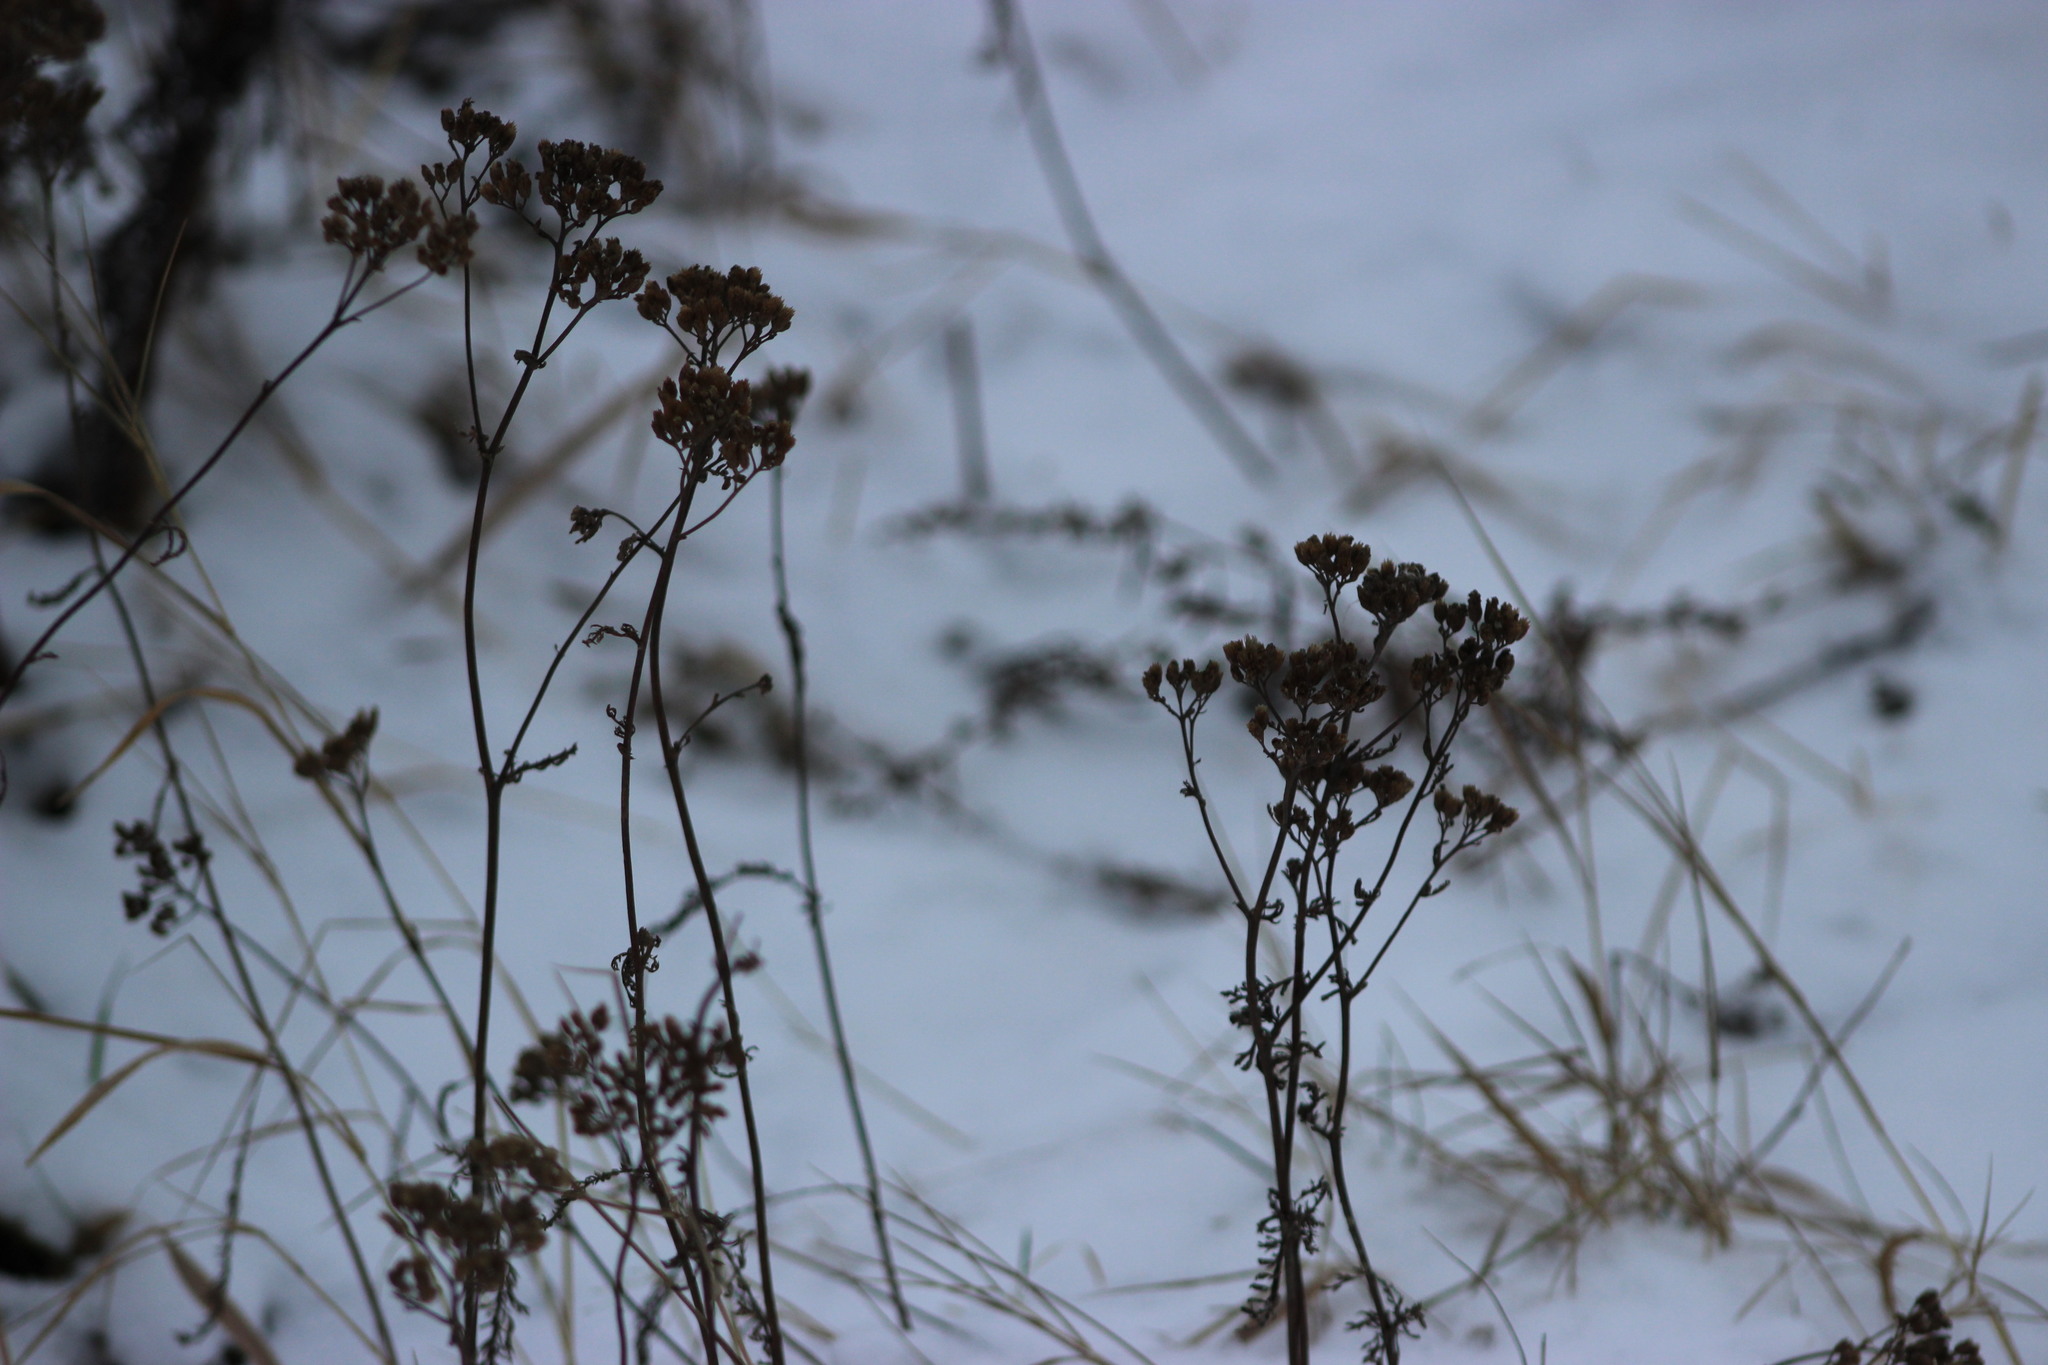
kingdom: Plantae
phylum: Tracheophyta
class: Magnoliopsida
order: Asterales
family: Asteraceae
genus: Achillea
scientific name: Achillea millefolium
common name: Yarrow
